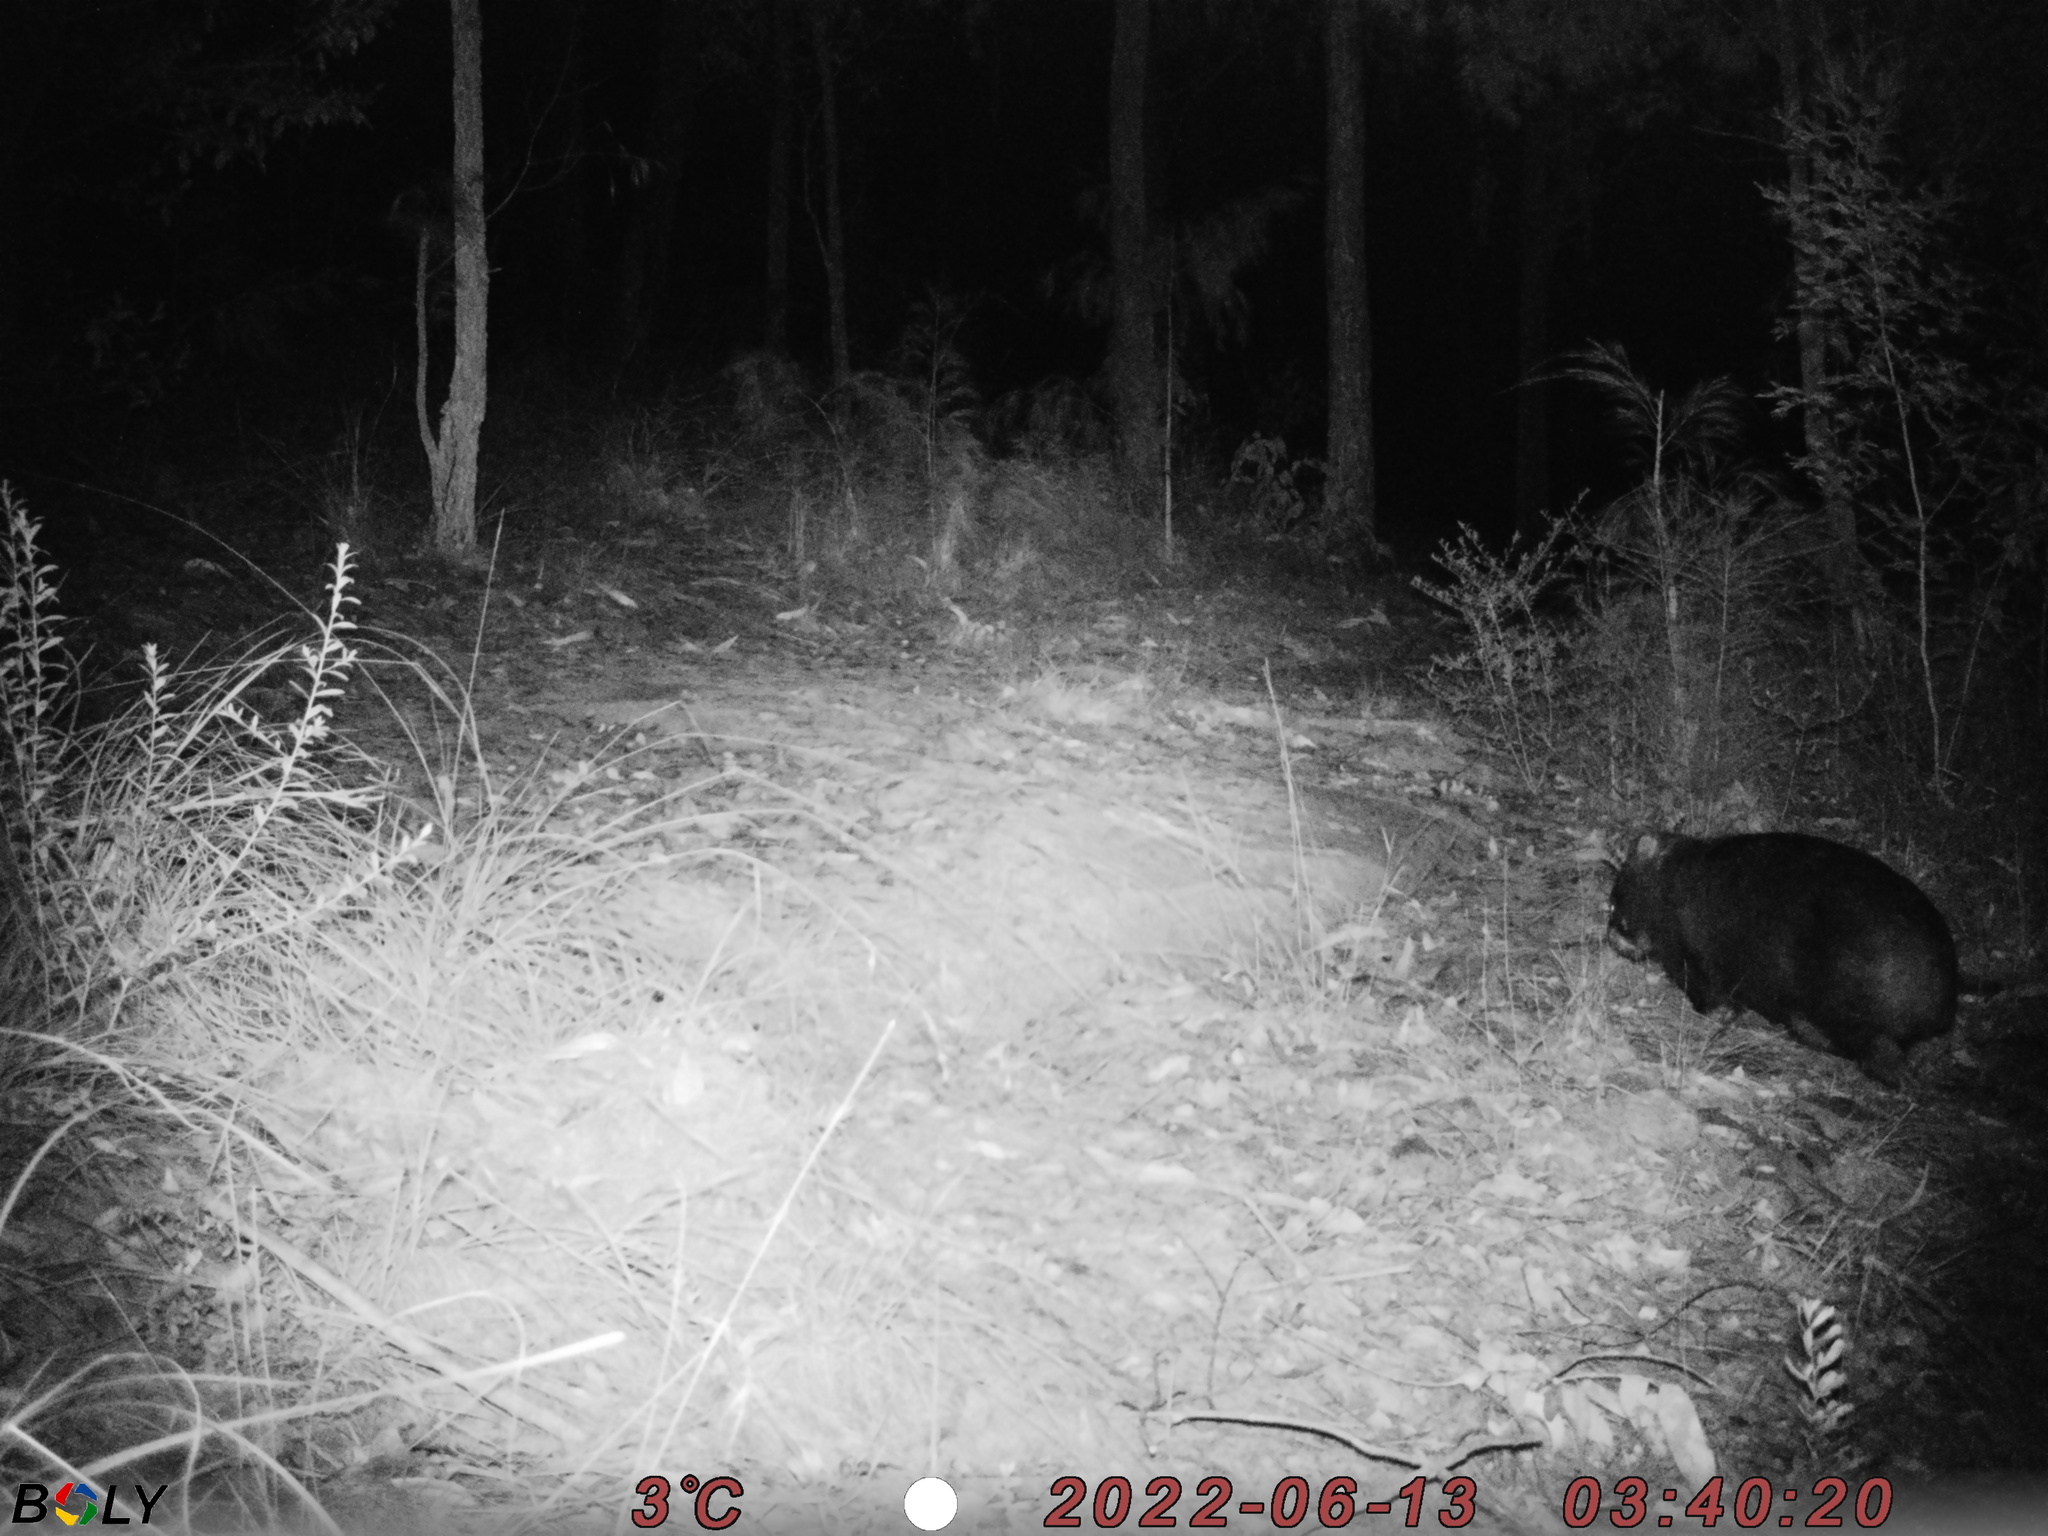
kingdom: Animalia
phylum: Chordata
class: Mammalia
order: Diprotodontia
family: Vombatidae
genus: Vombatus
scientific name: Vombatus ursinus
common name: Common wombat
